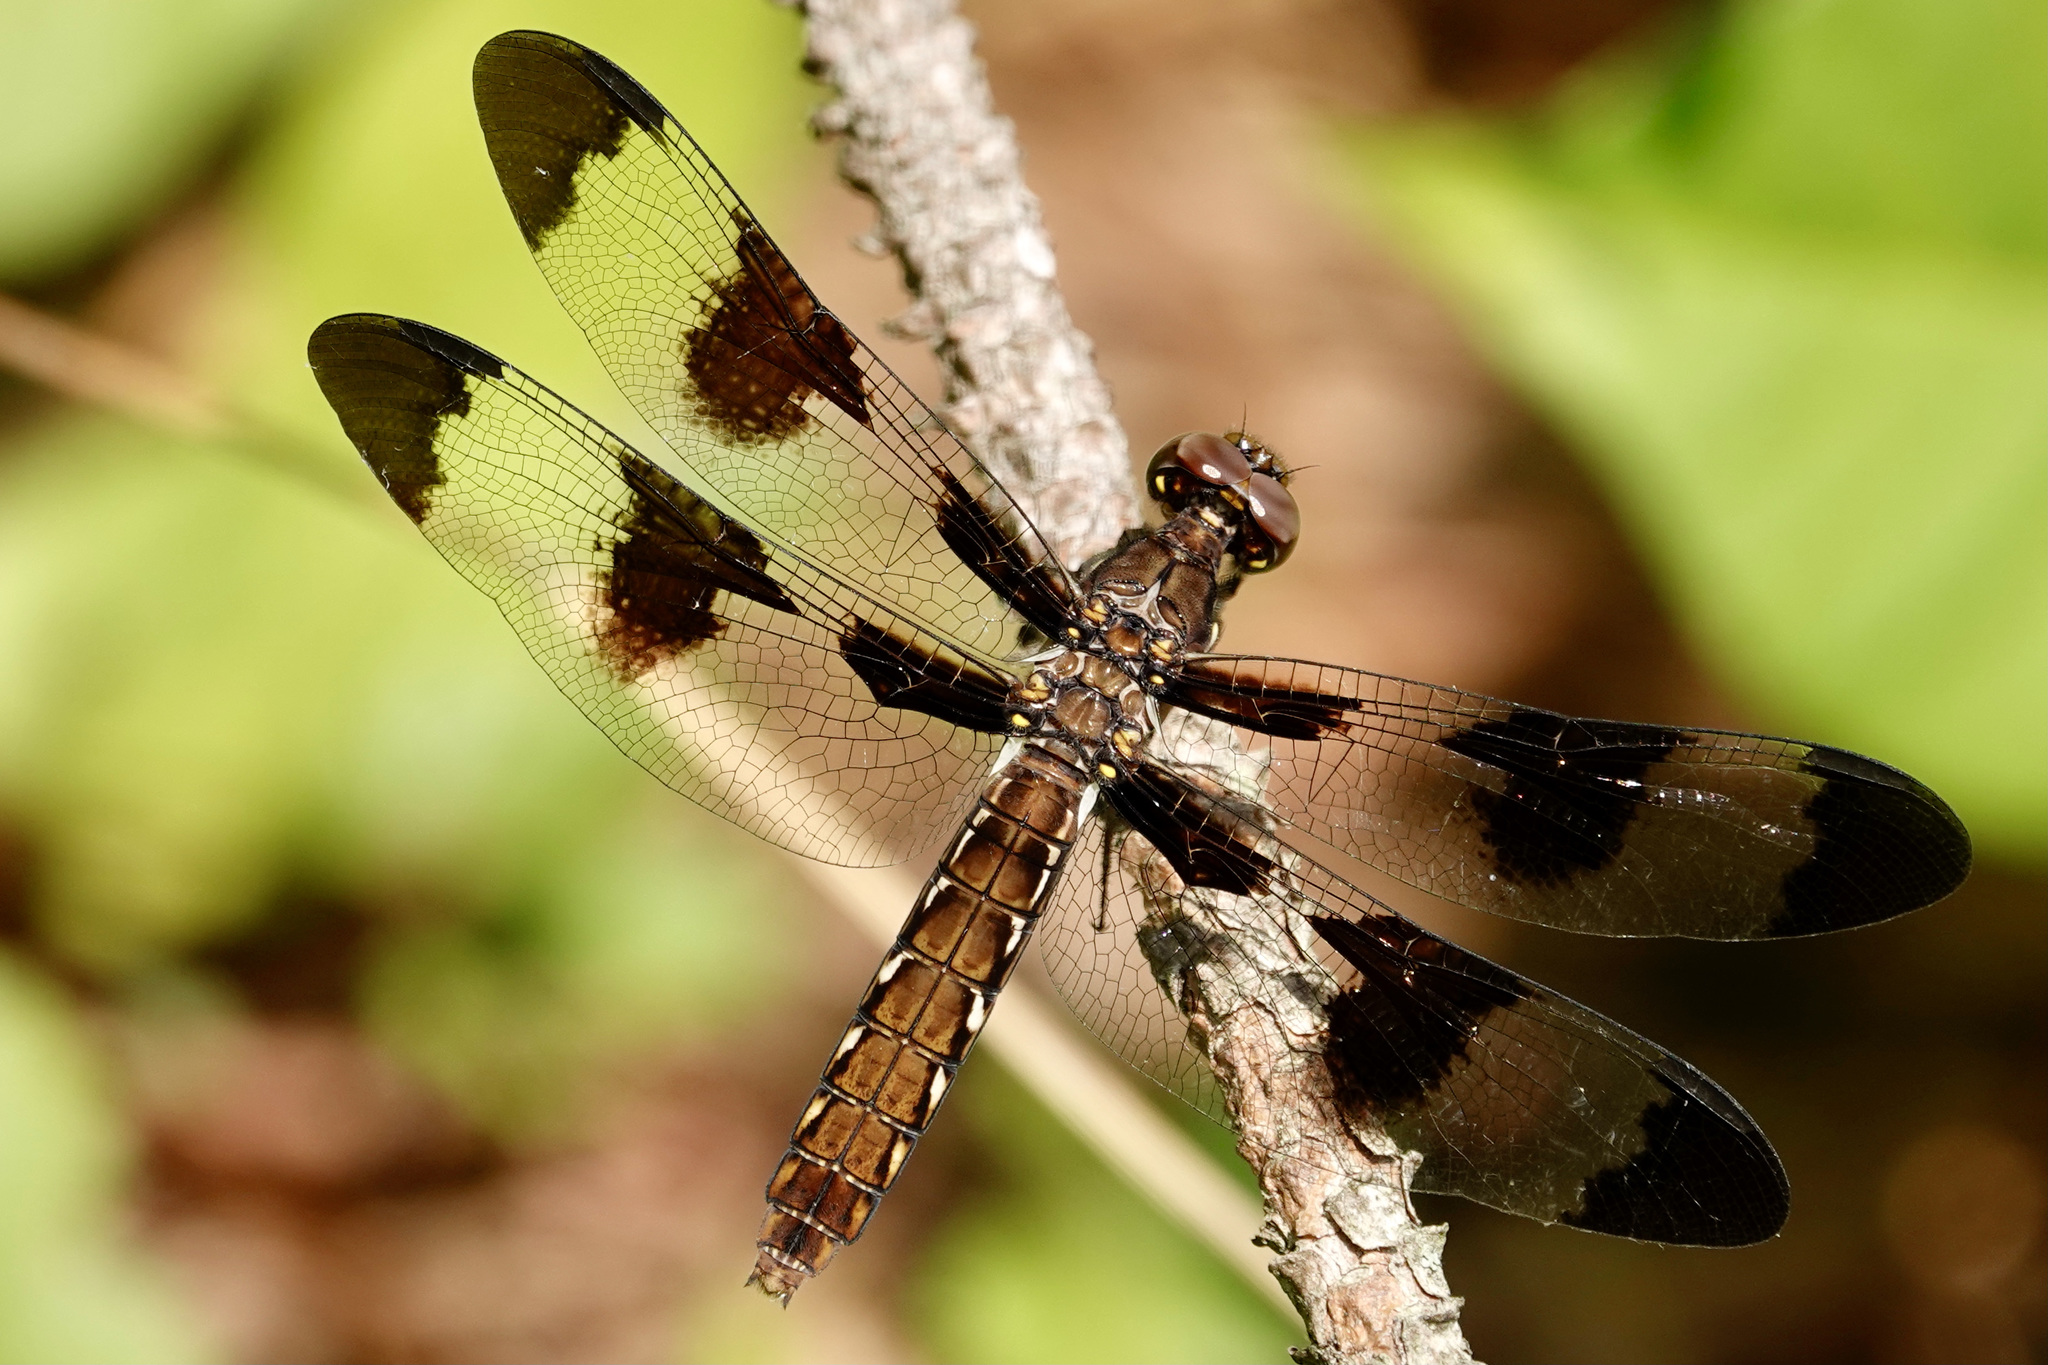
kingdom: Animalia
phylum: Arthropoda
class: Insecta
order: Odonata
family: Libellulidae
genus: Plathemis
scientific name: Plathemis lydia
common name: Common whitetail
